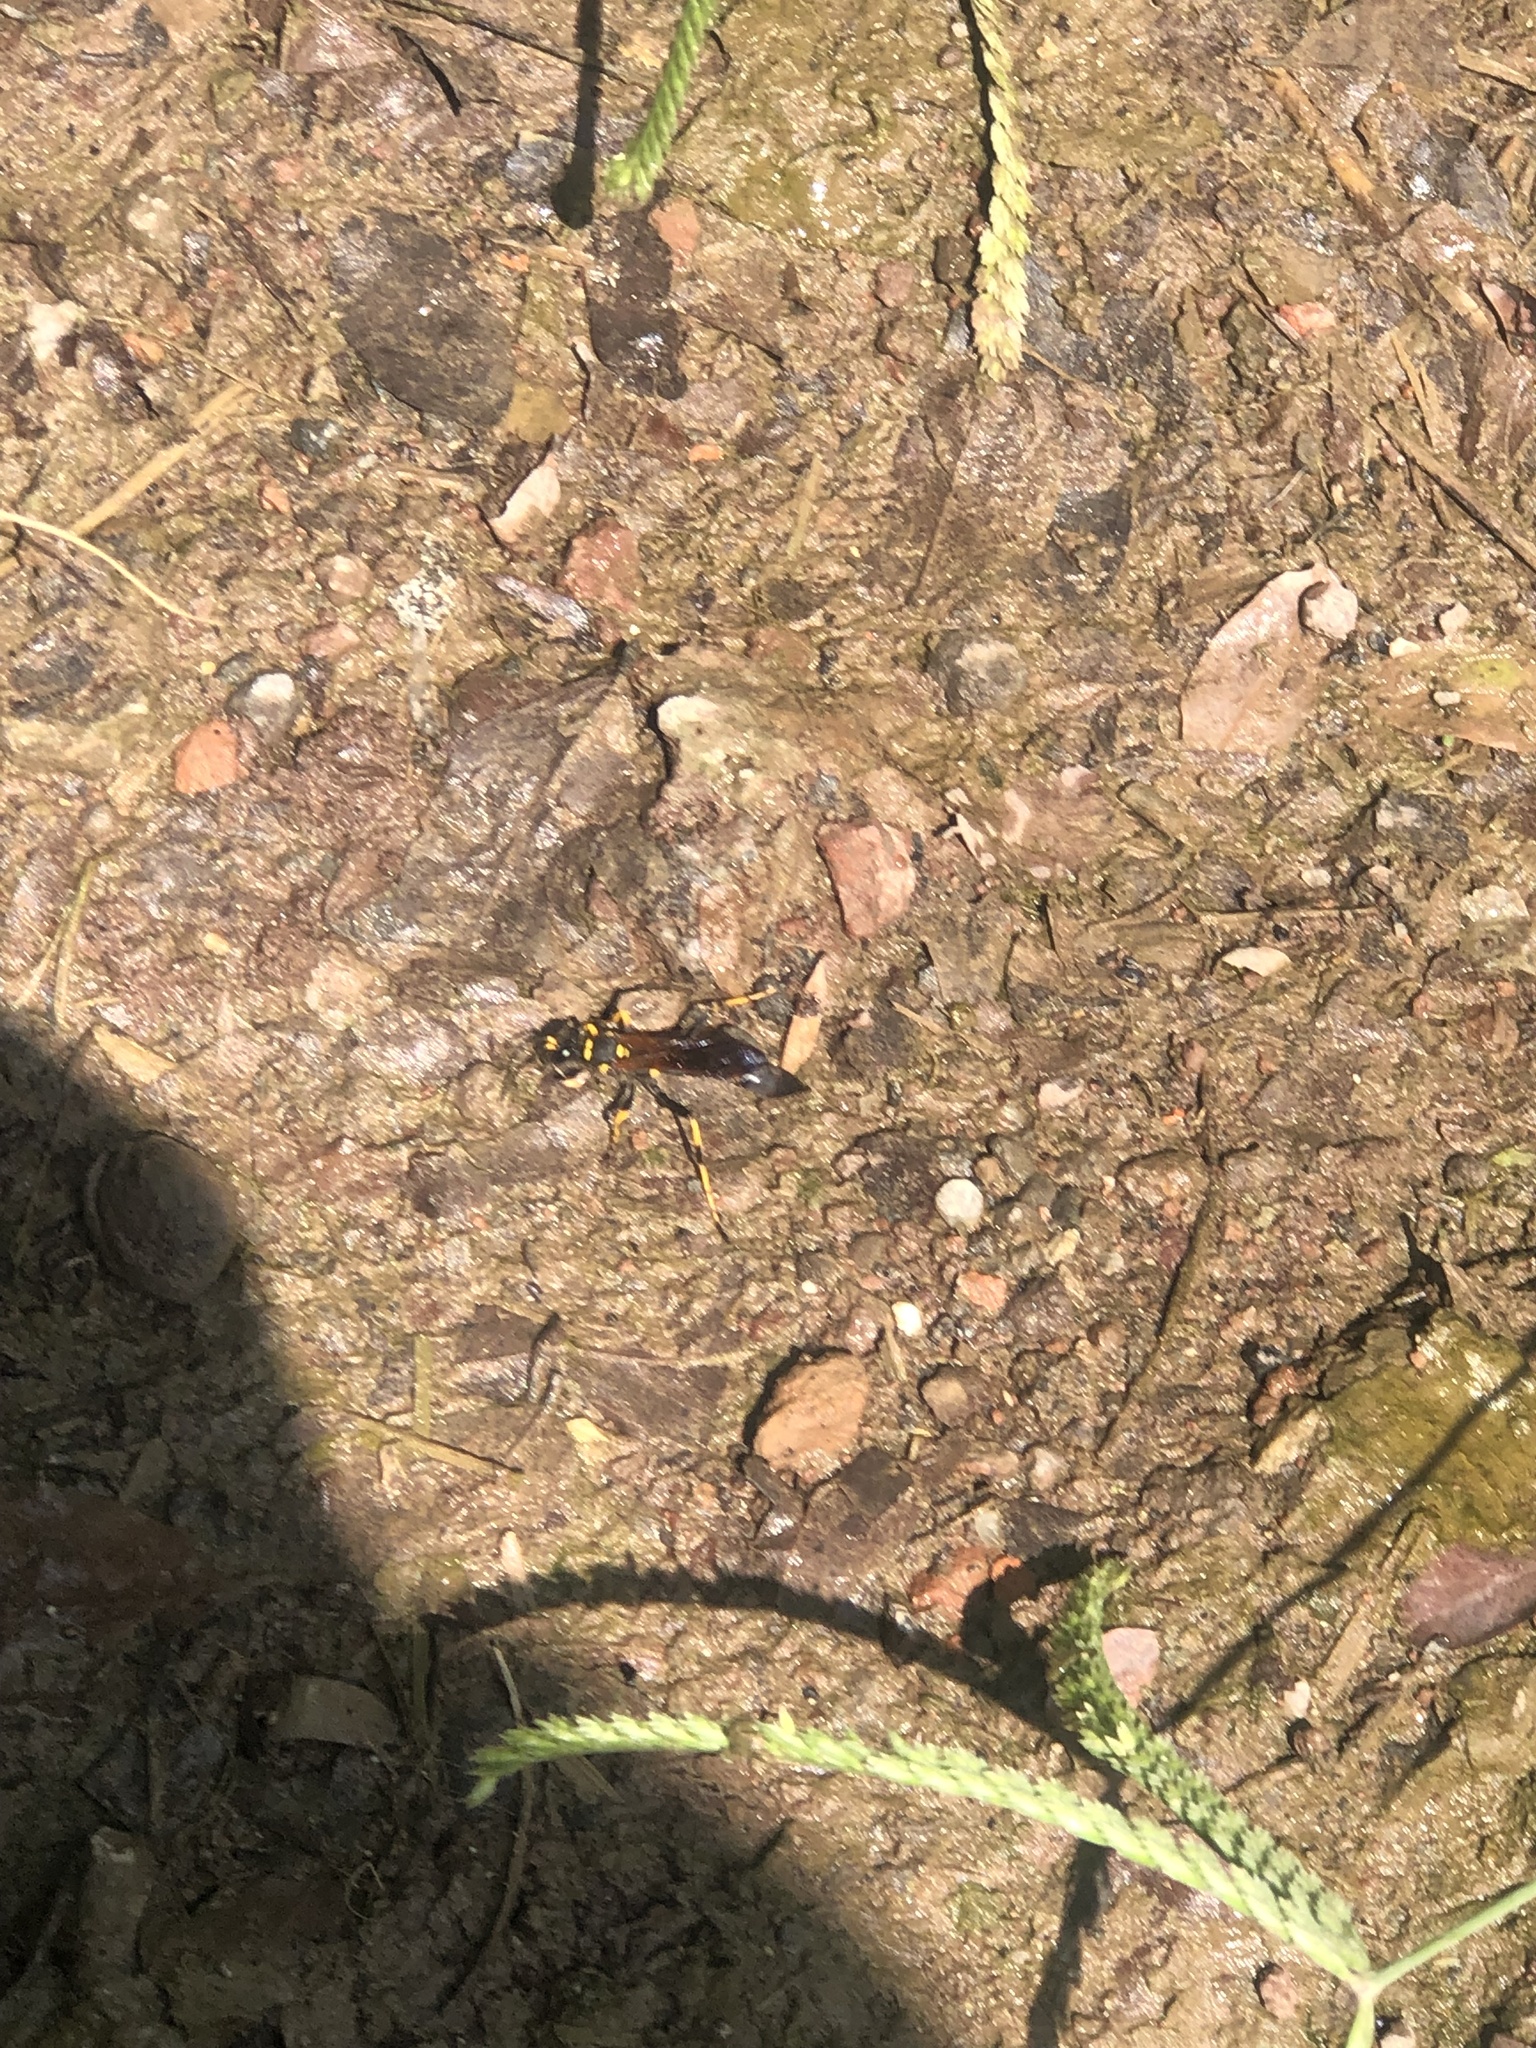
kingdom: Animalia
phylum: Arthropoda
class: Insecta
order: Hymenoptera
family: Sphecidae
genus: Sceliphron
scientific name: Sceliphron caementarium
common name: Mud dauber
